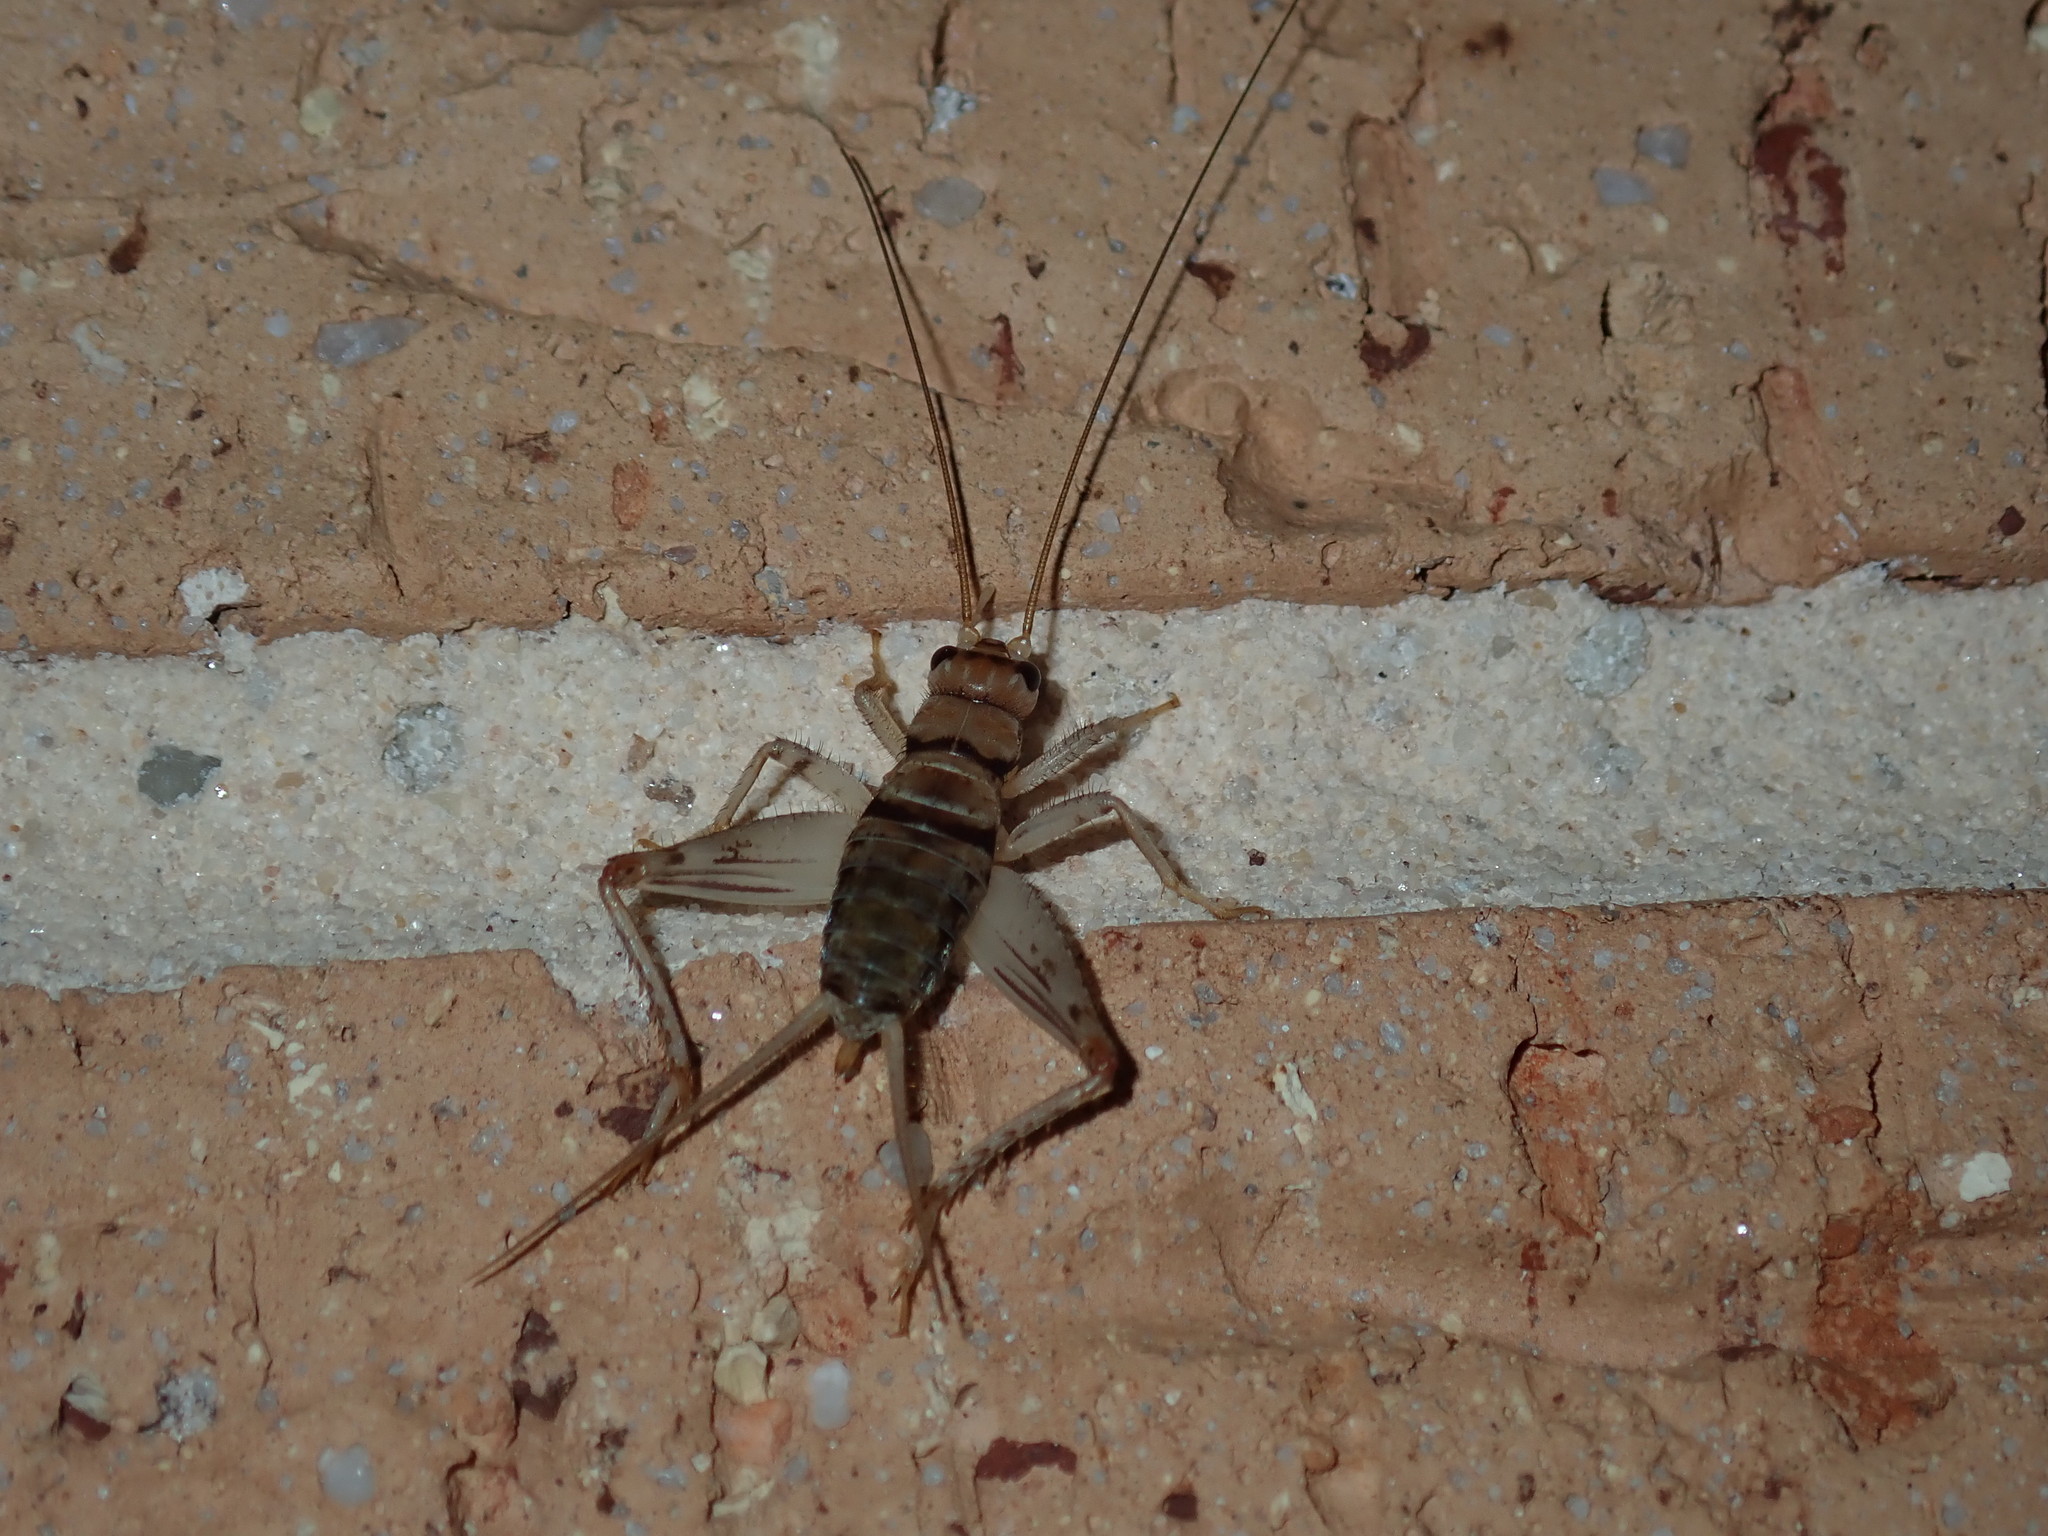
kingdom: Animalia
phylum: Arthropoda
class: Insecta
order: Orthoptera
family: Gryllidae
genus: Gryllodes
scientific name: Gryllodes sigillatus
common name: Tropical house cricket
